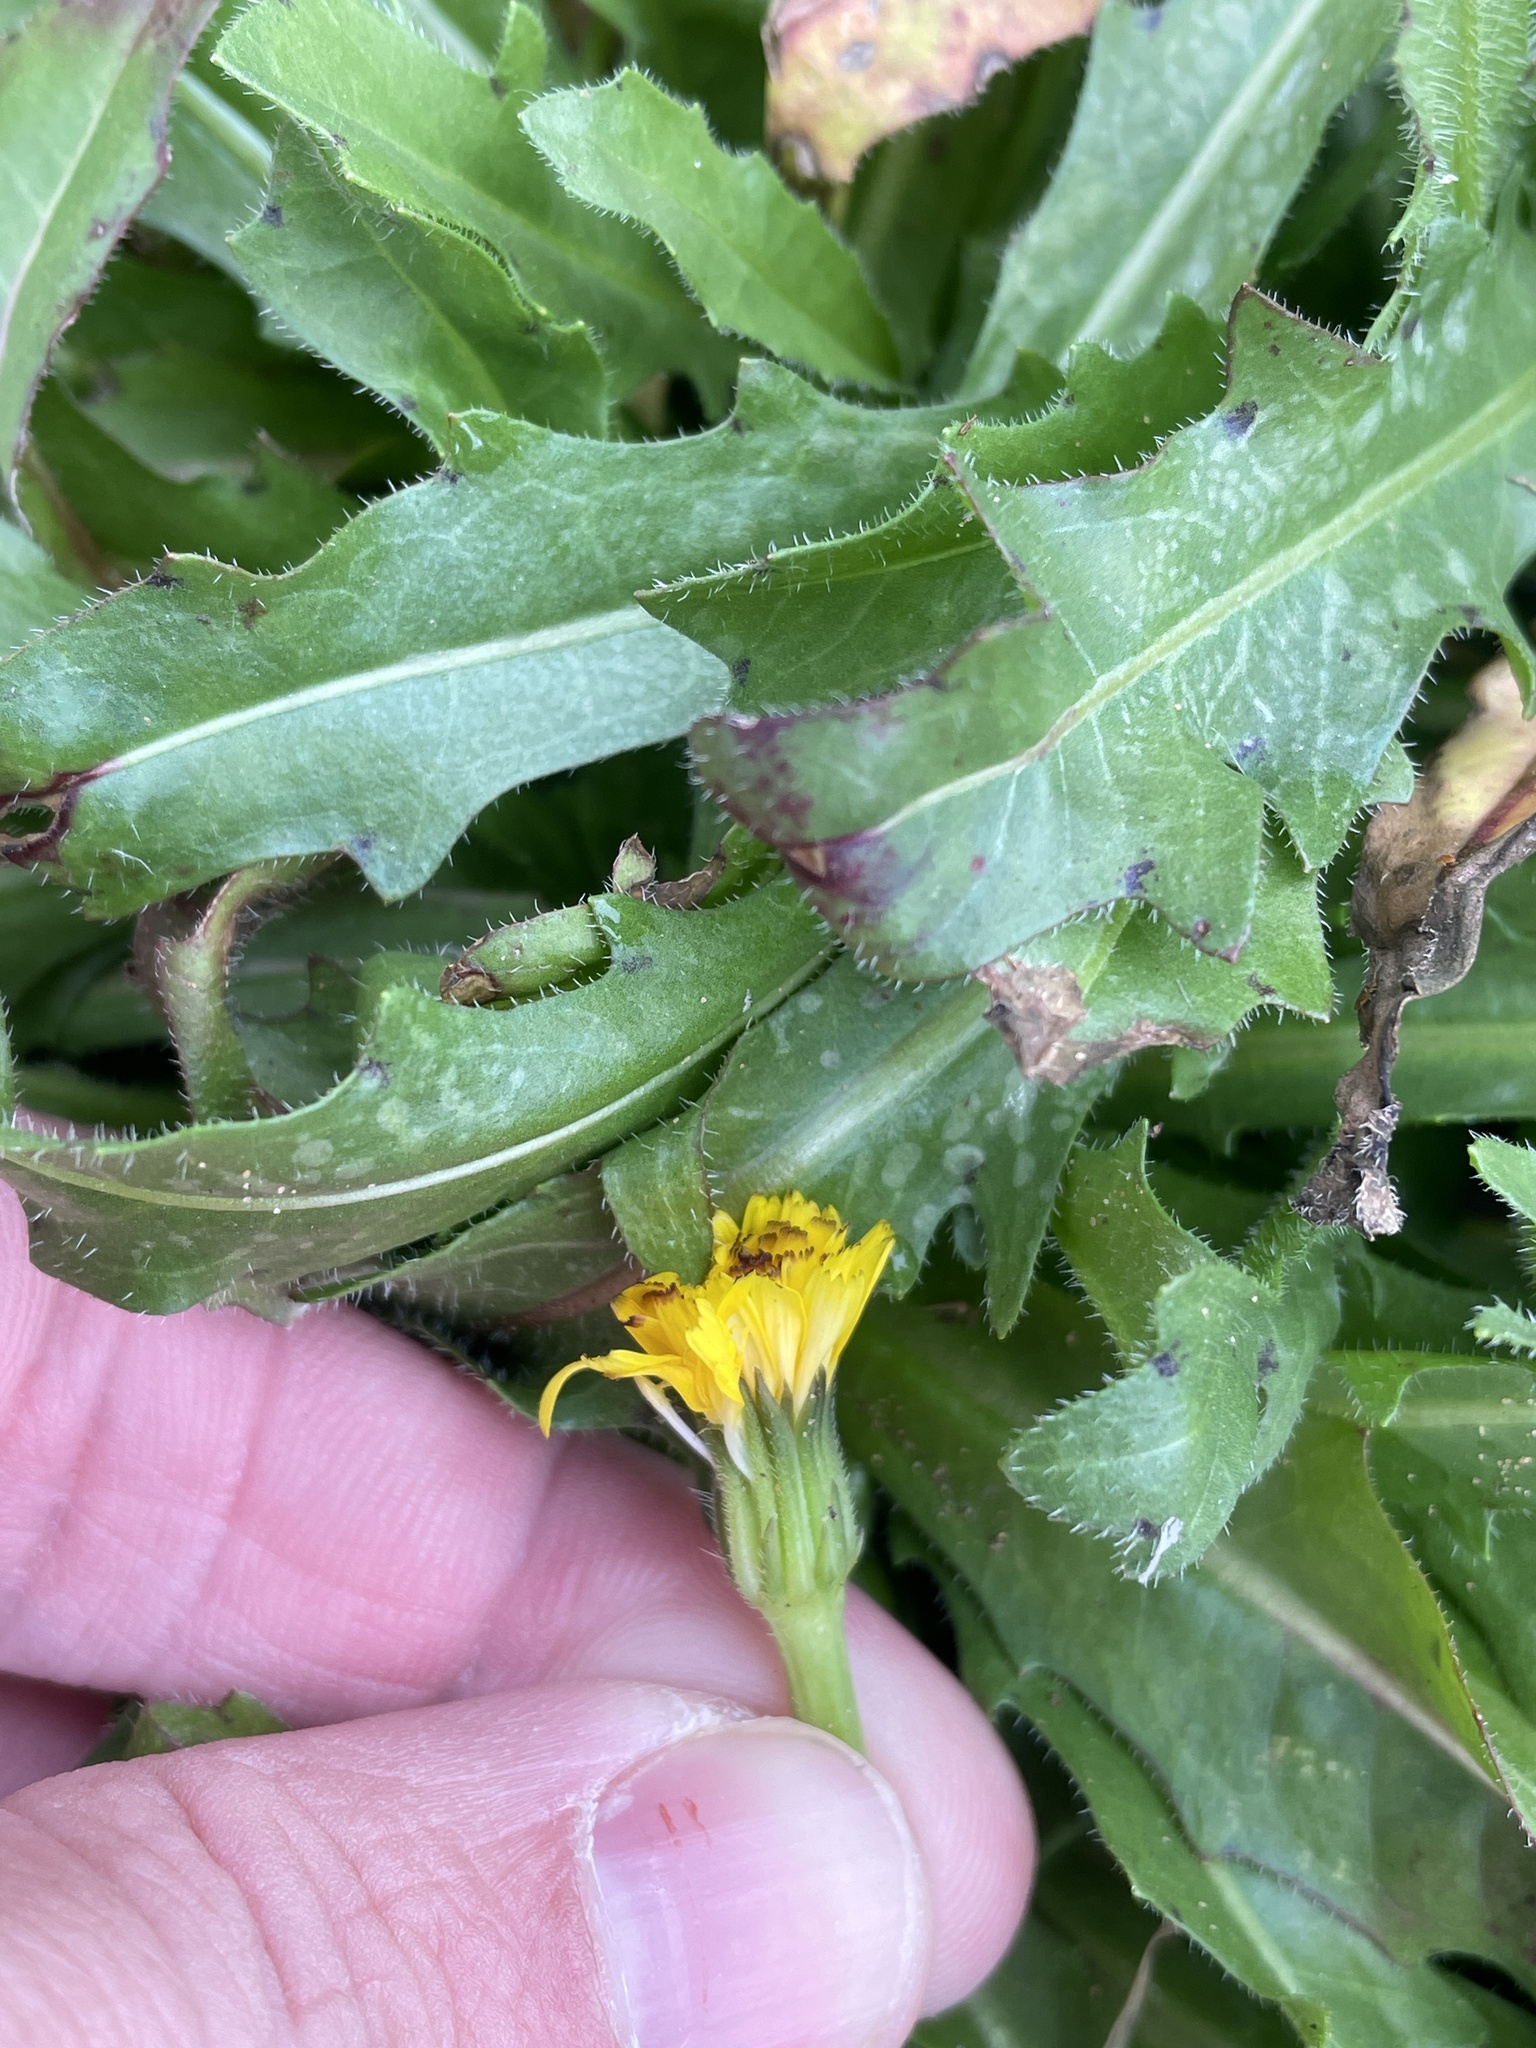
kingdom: Plantae
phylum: Tracheophyta
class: Magnoliopsida
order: Asterales
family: Asteraceae
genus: Hedypnois
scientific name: Hedypnois rhagadioloides
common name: Cretan weed
